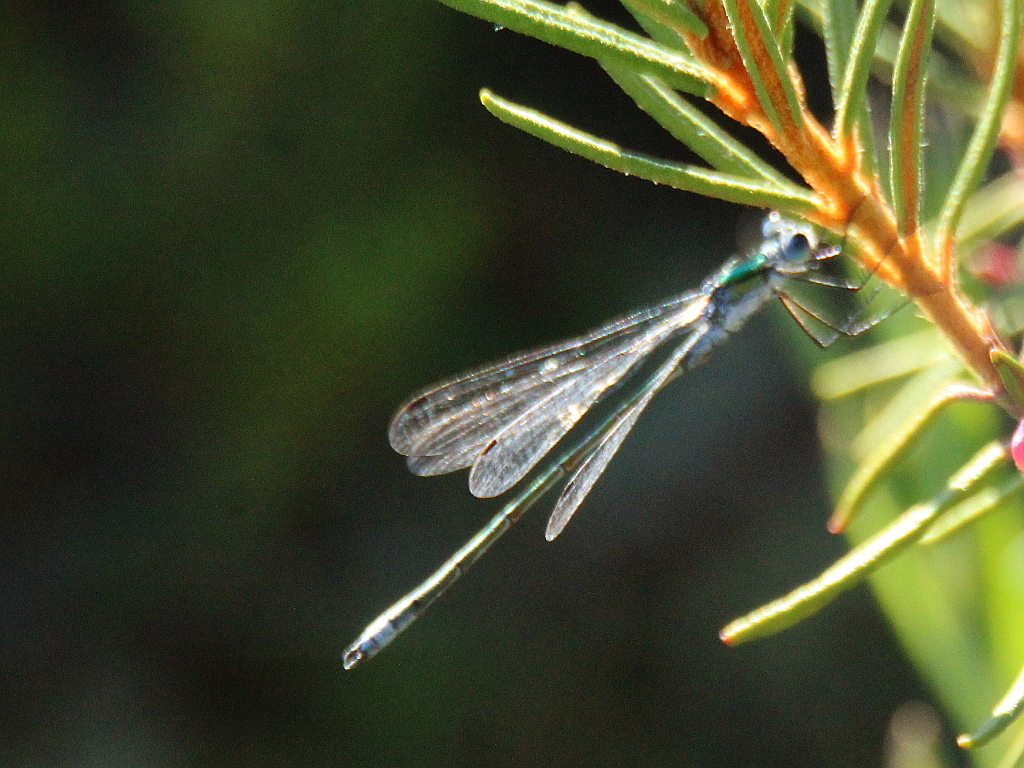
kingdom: Animalia
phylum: Arthropoda
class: Insecta
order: Odonata
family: Lestidae
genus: Lestes
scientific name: Lestes sponsa
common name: Common spreadwing
